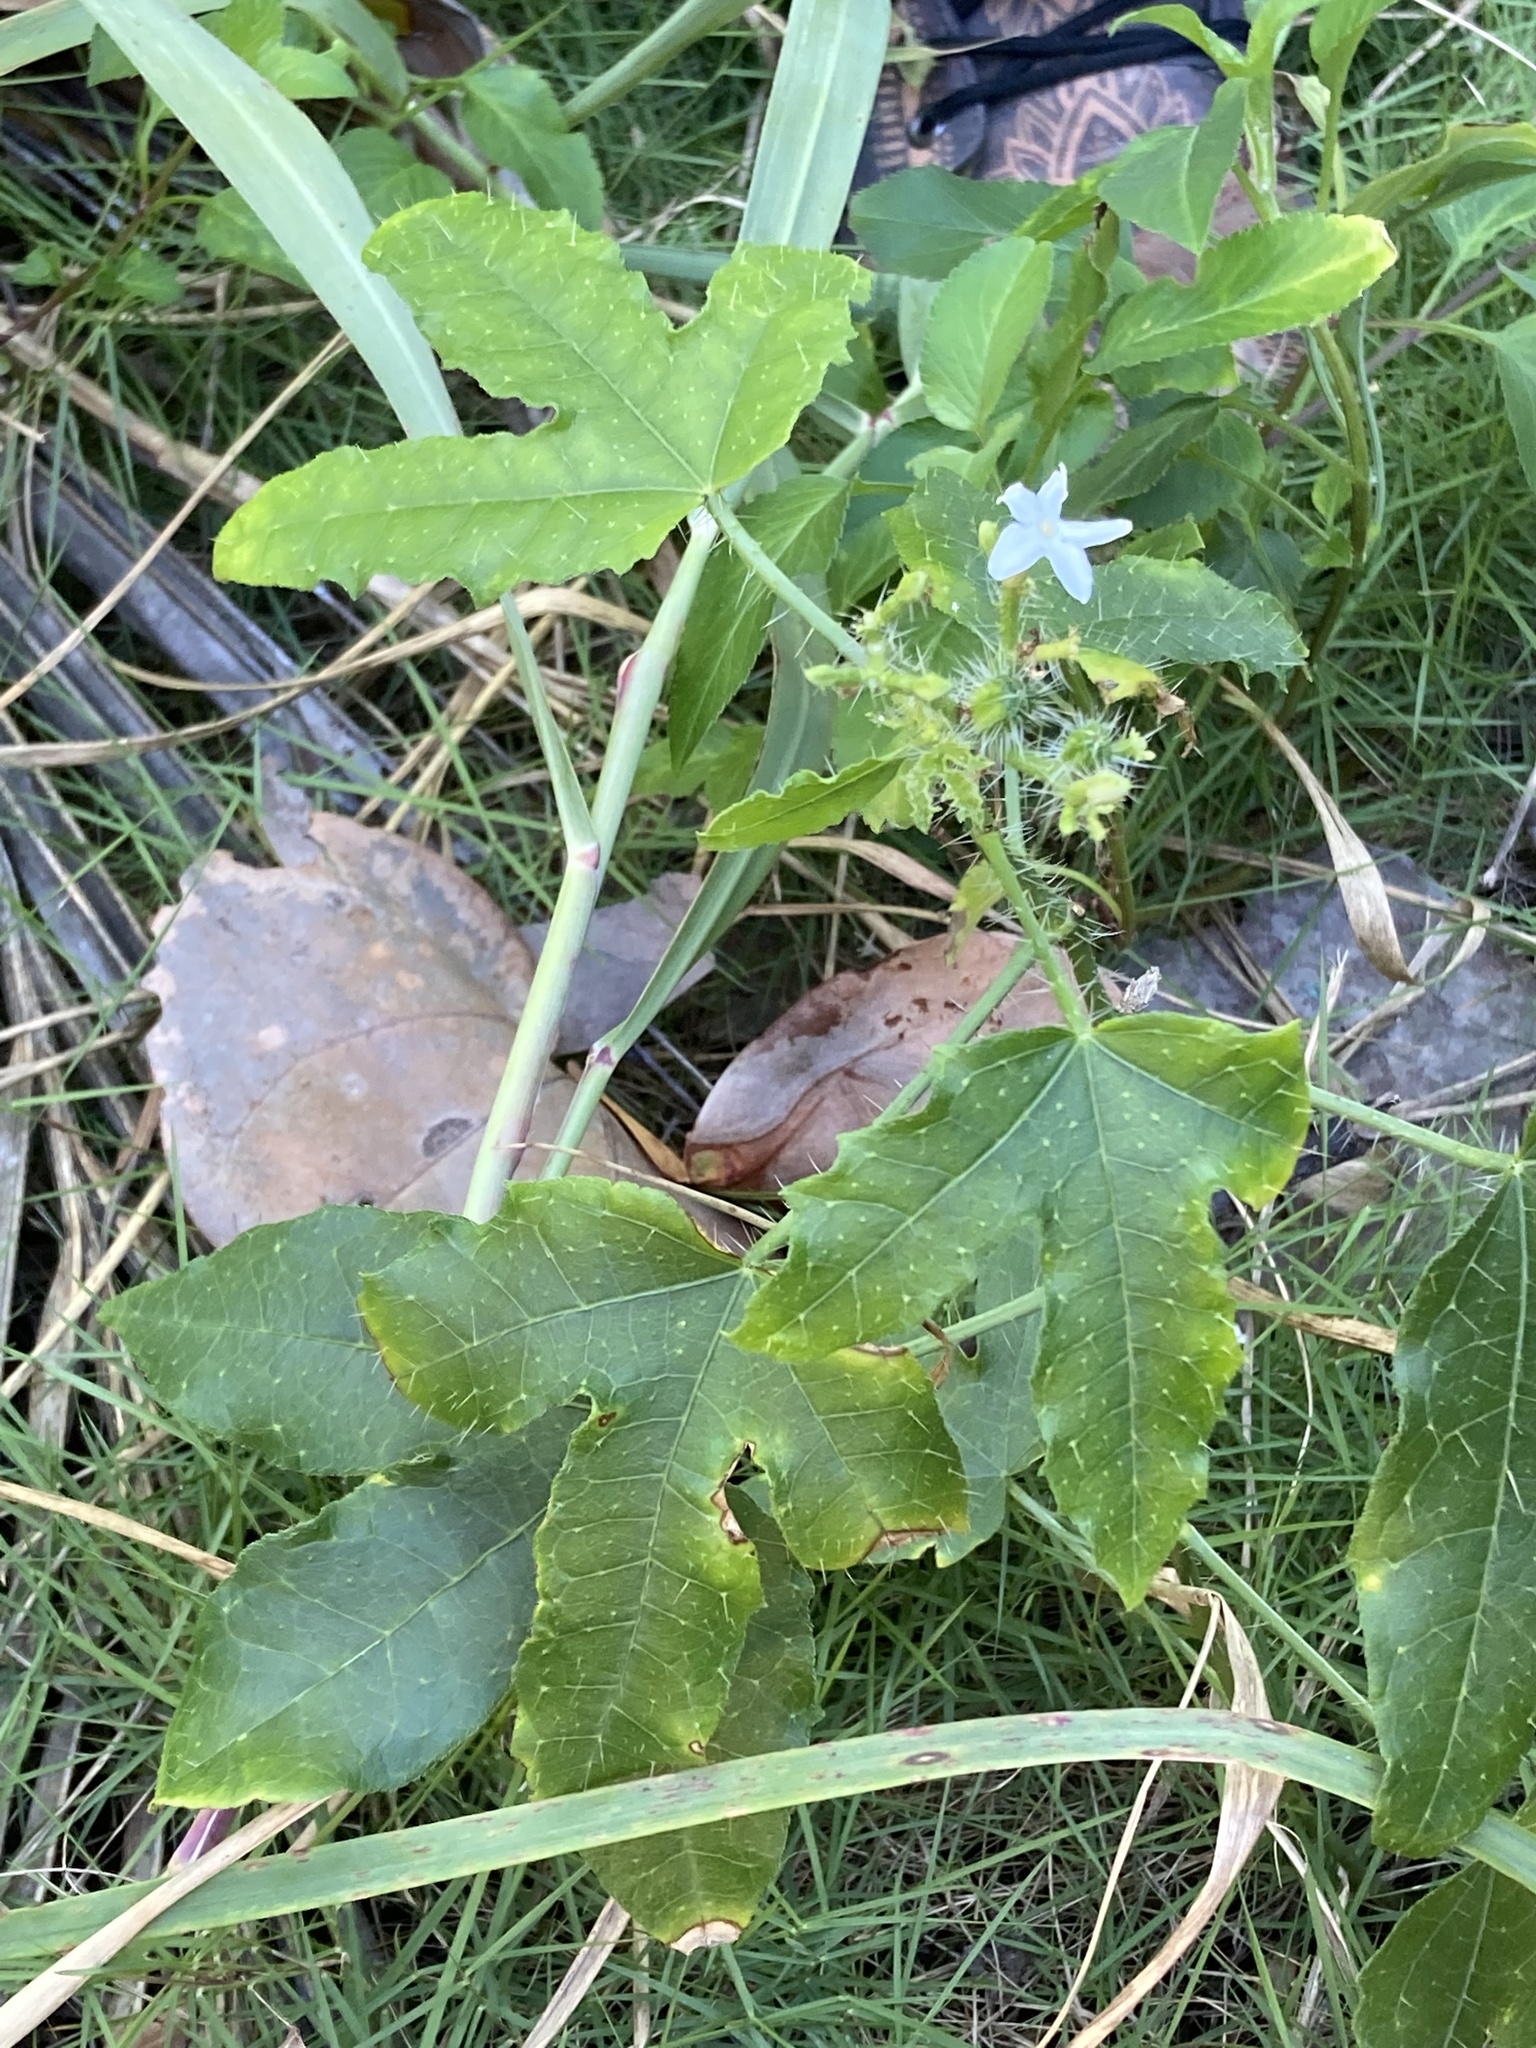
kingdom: Plantae
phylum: Tracheophyta
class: Magnoliopsida
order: Malpighiales
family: Euphorbiaceae
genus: Cnidoscolus
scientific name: Cnidoscolus stimulosus
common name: Bull-nettle
